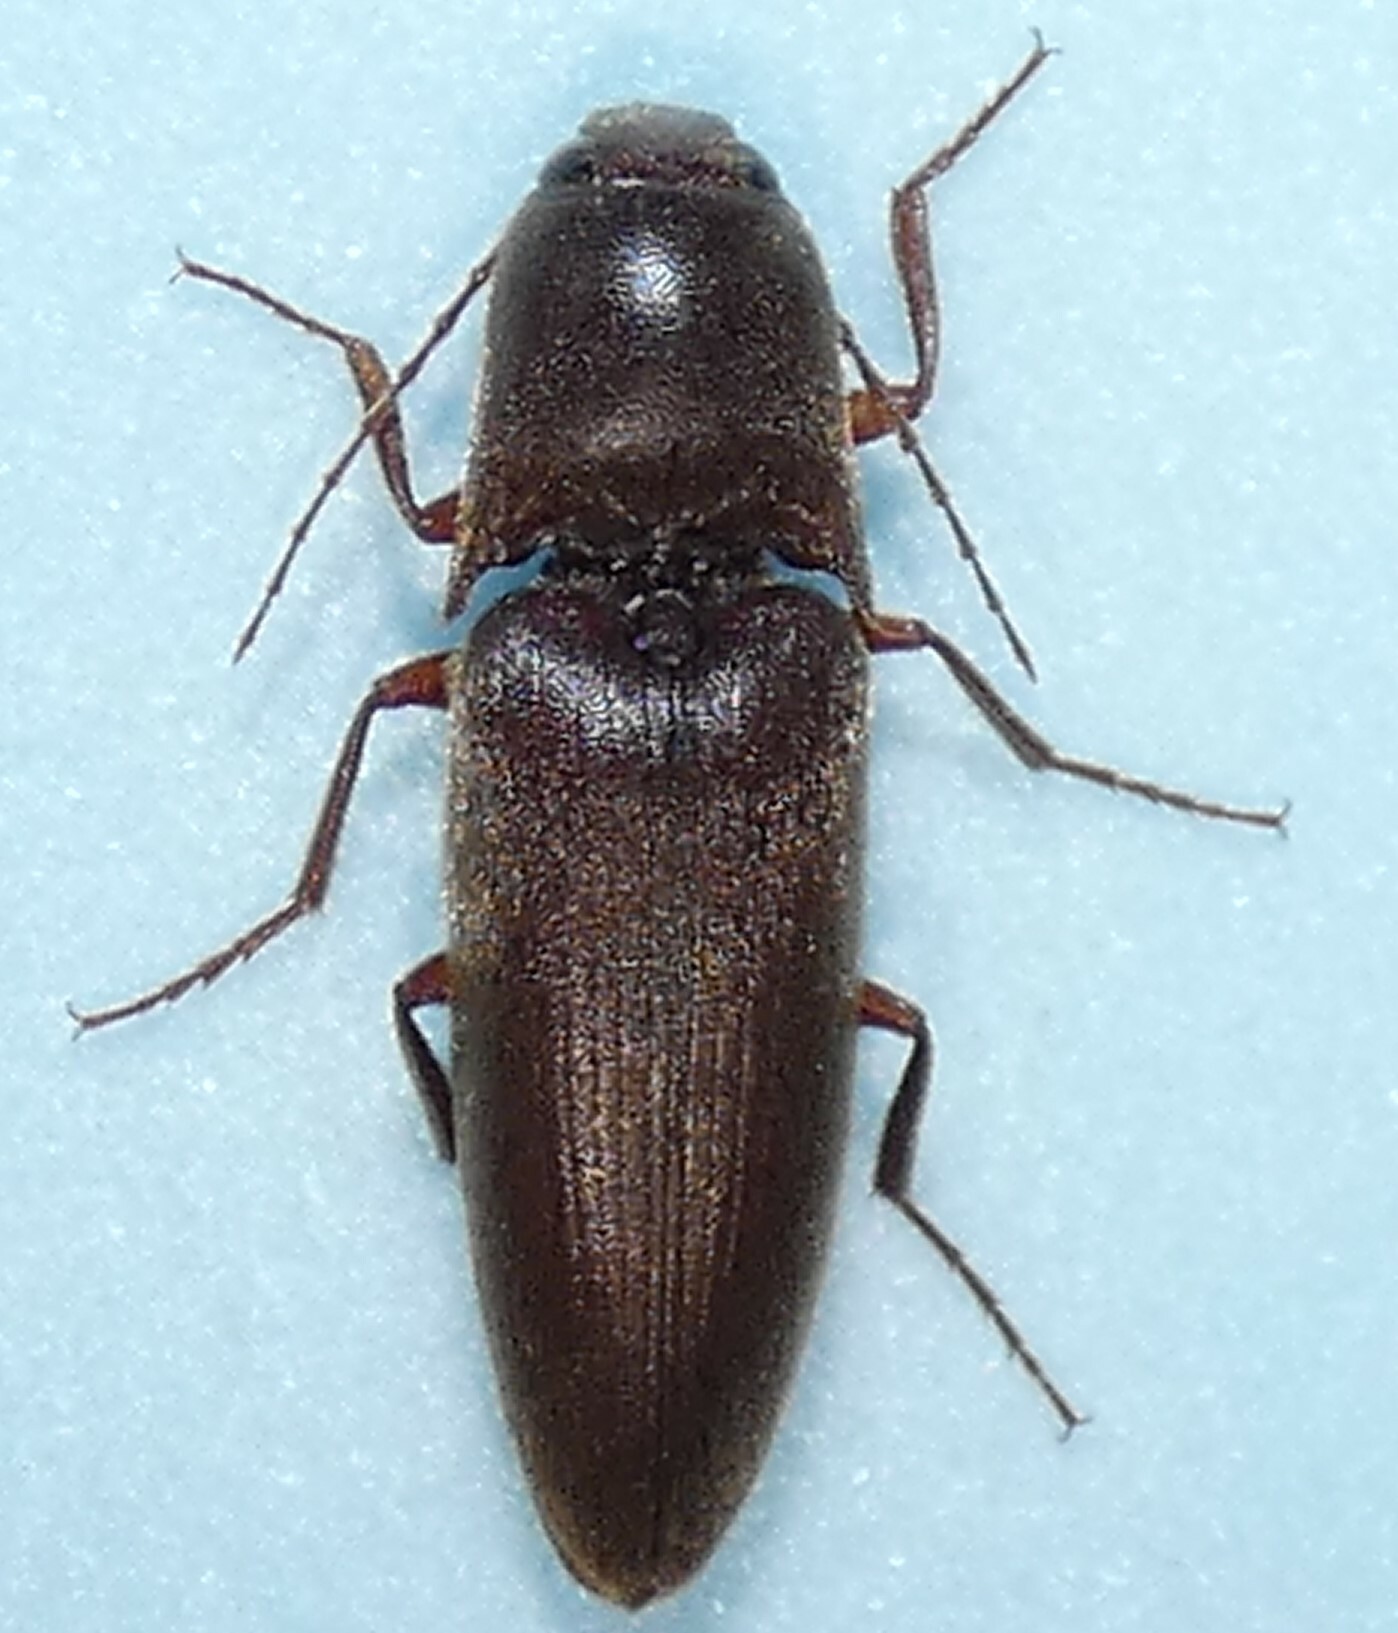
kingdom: Animalia
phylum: Arthropoda
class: Insecta
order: Coleoptera
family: Elateridae
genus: Diplostethus
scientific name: Diplostethus
